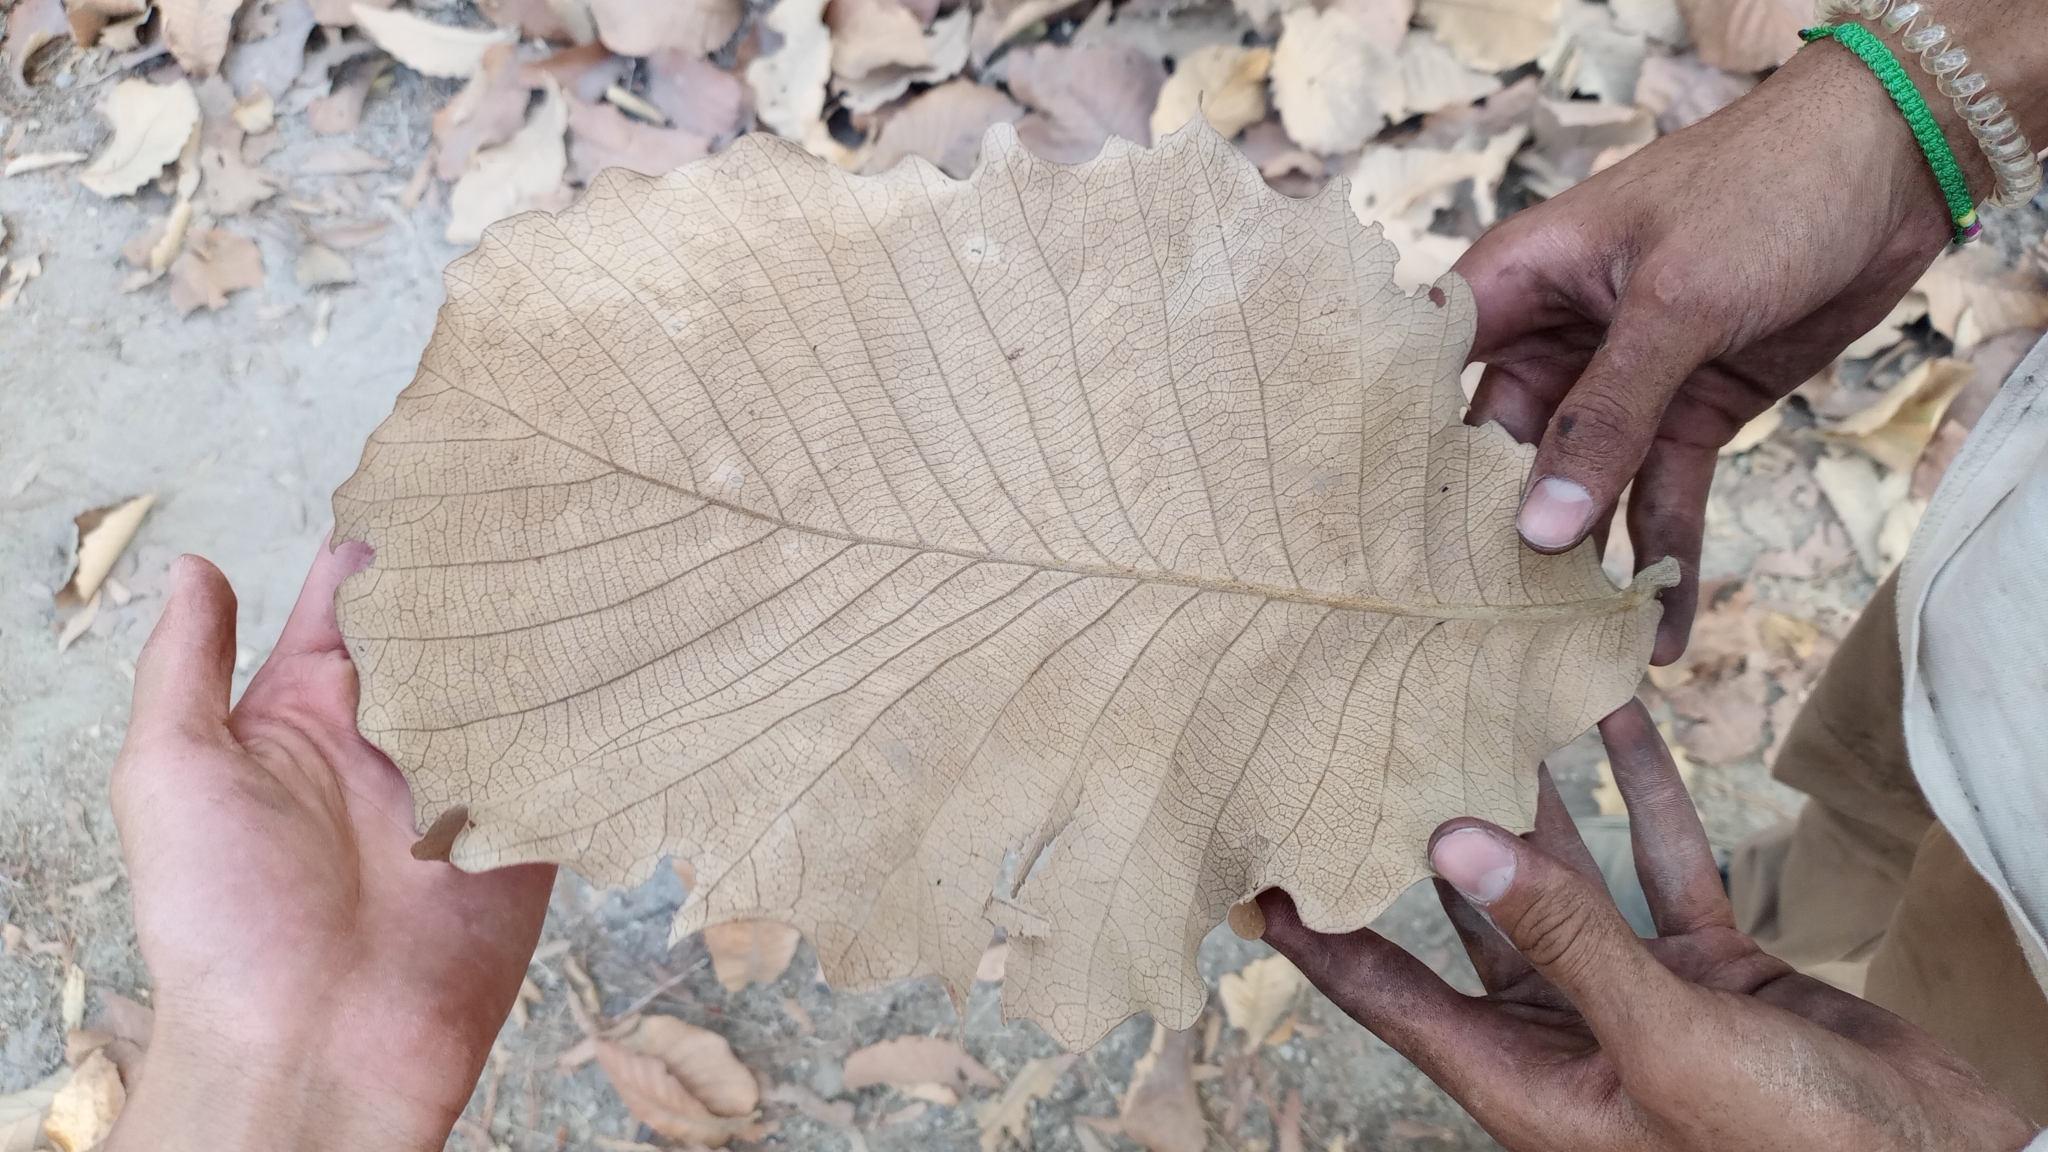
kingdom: Plantae
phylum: Tracheophyta
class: Magnoliopsida
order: Fagales
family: Fagaceae
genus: Quercus
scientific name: Quercus resinosa
